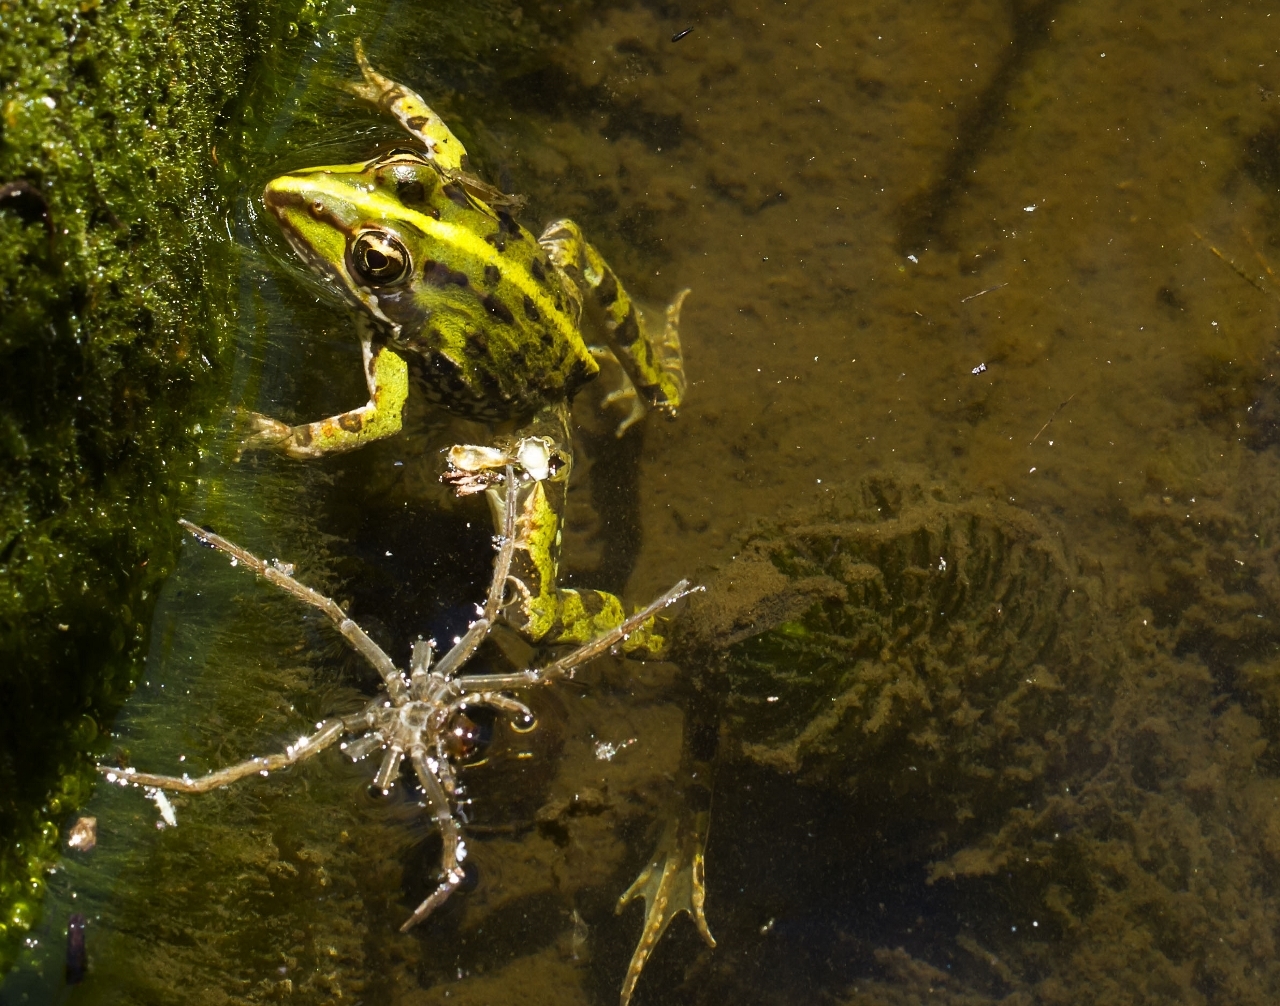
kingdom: Animalia
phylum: Chordata
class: Amphibia
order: Anura
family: Pyxicephalidae
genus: Amietia
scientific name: Amietia delalandii
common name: Delalande's river frog
